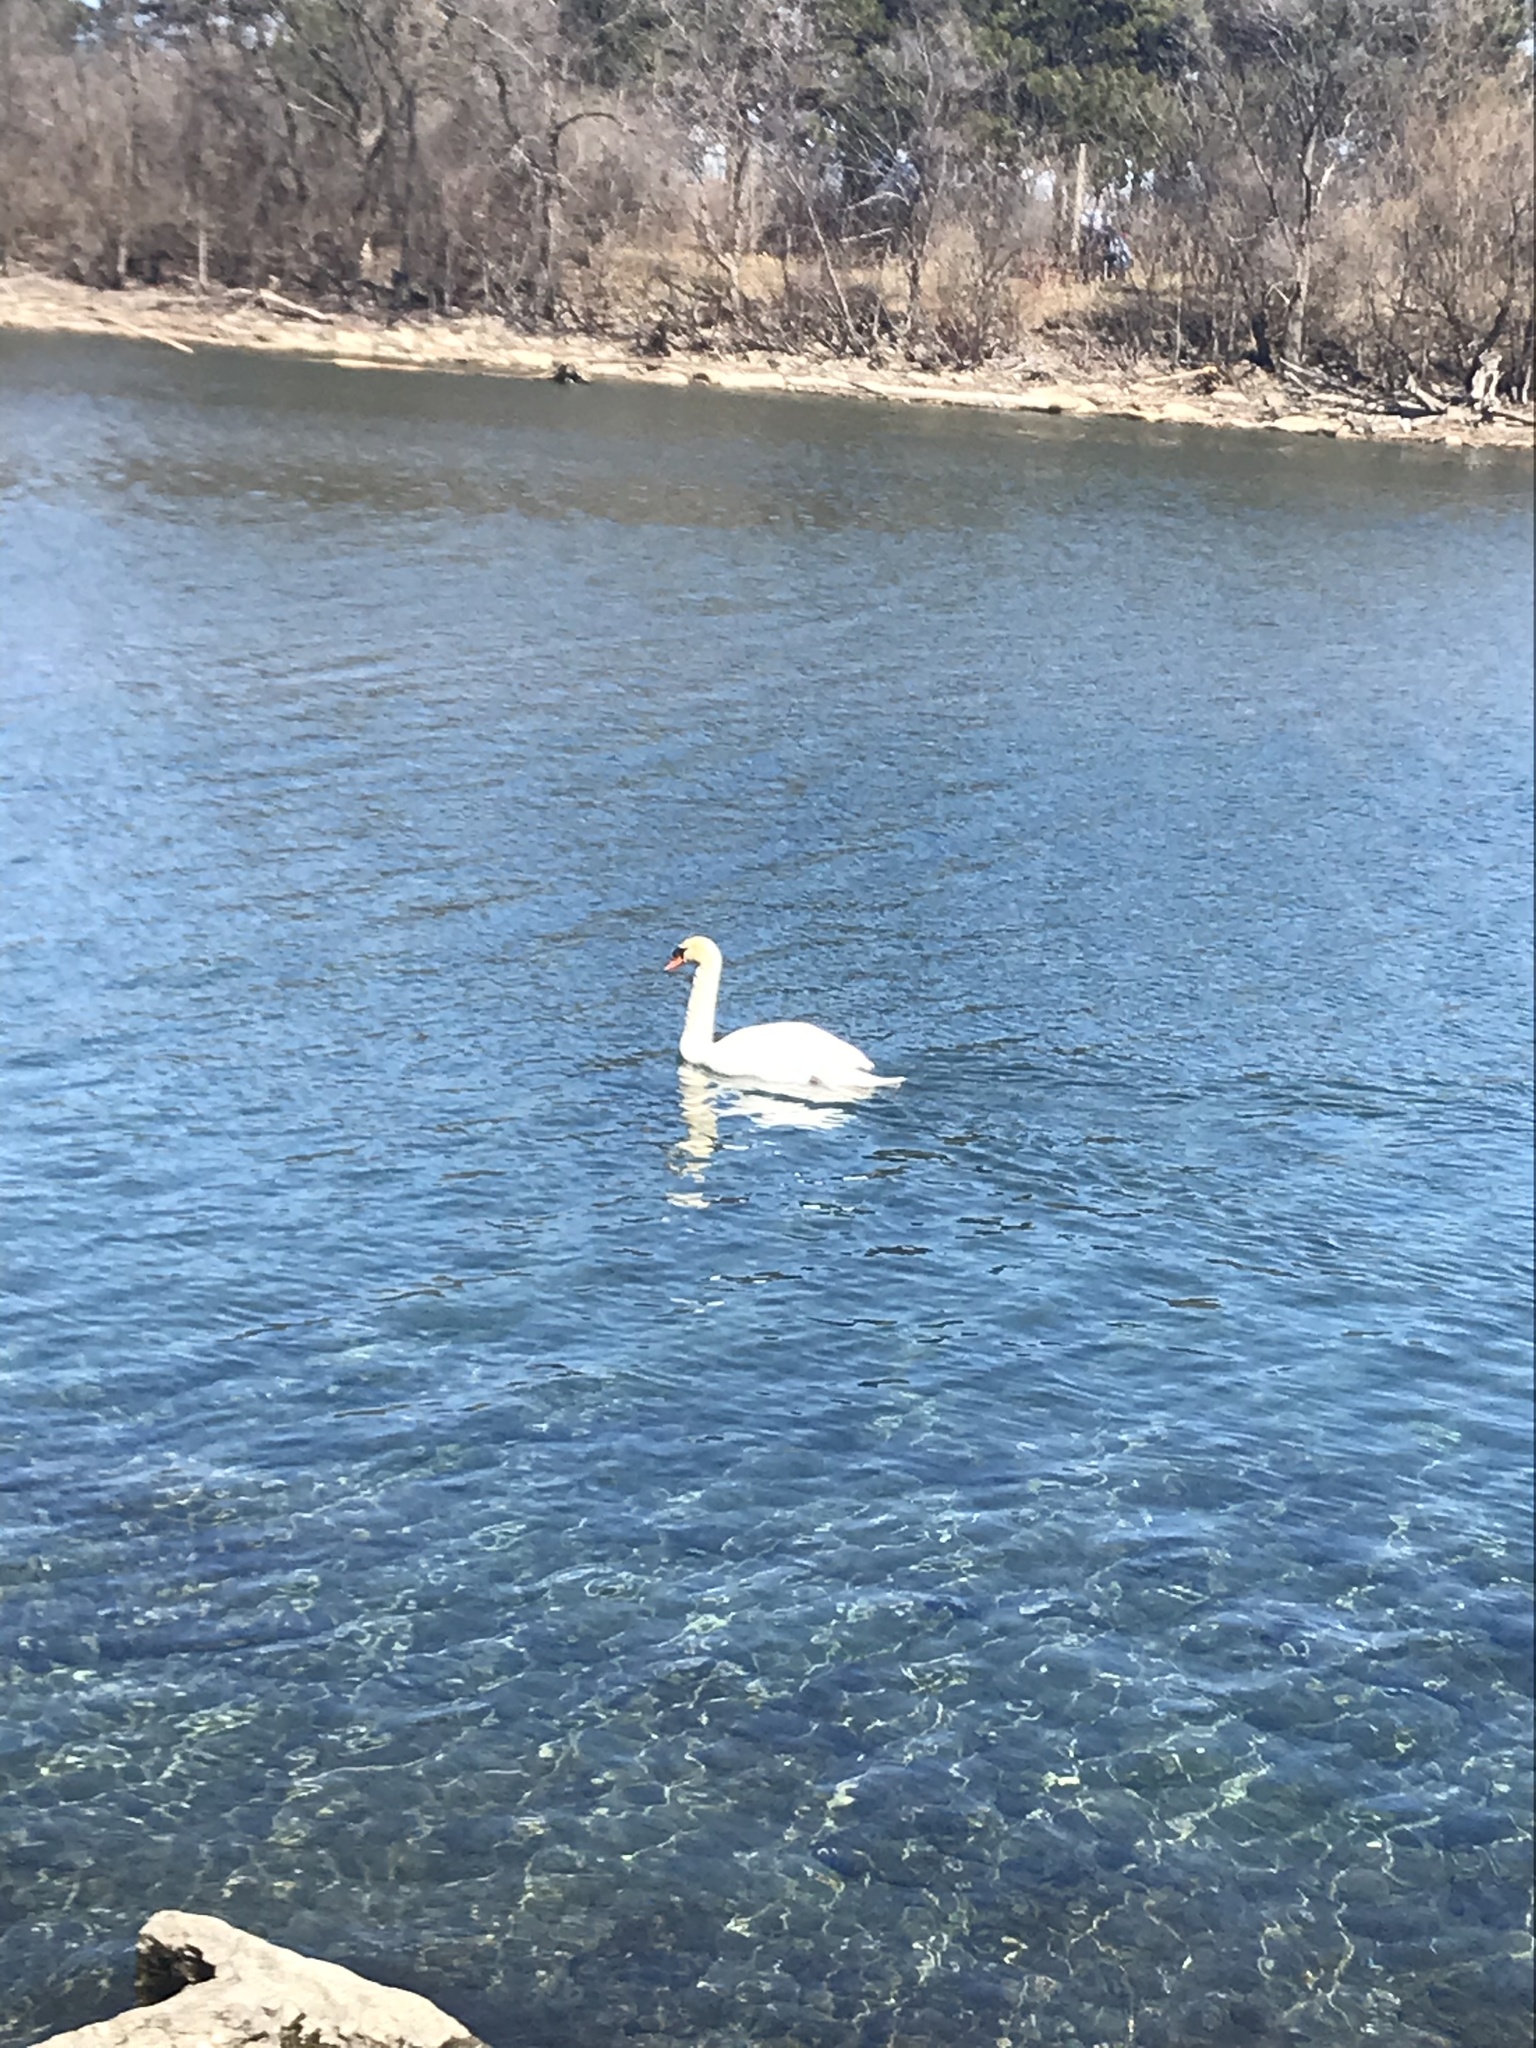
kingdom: Animalia
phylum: Chordata
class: Aves
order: Anseriformes
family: Anatidae
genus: Cygnus
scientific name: Cygnus olor
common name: Mute swan
